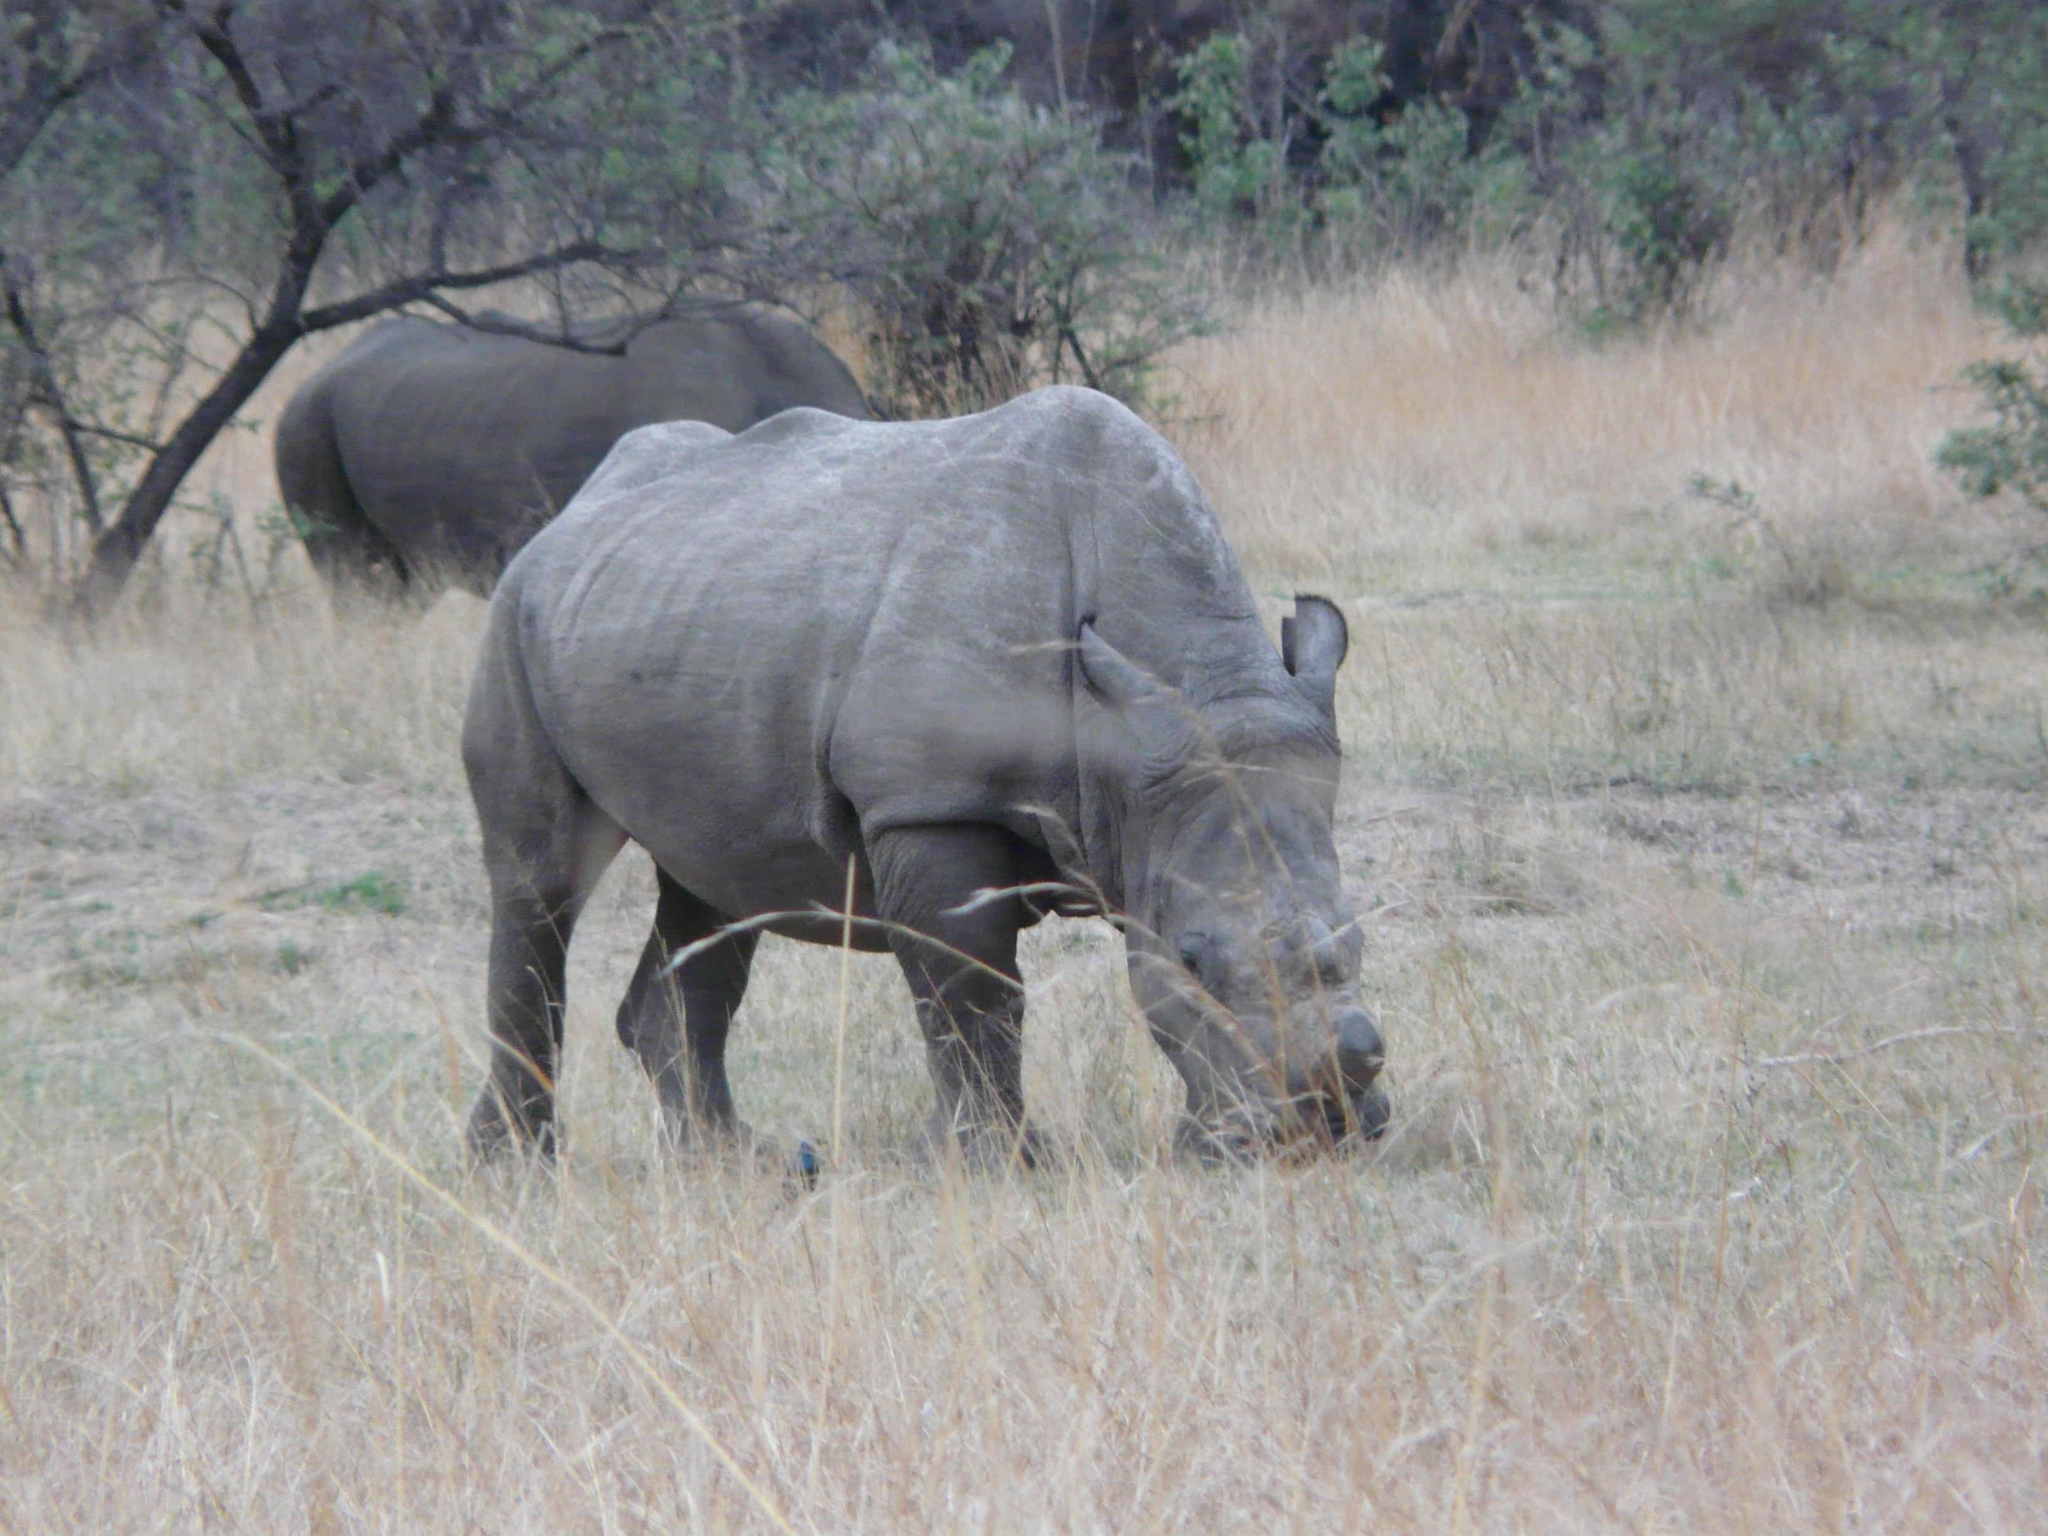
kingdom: Animalia
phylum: Chordata
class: Mammalia
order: Perissodactyla
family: Rhinocerotidae
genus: Ceratotherium
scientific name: Ceratotherium simum
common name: White rhinoceros
